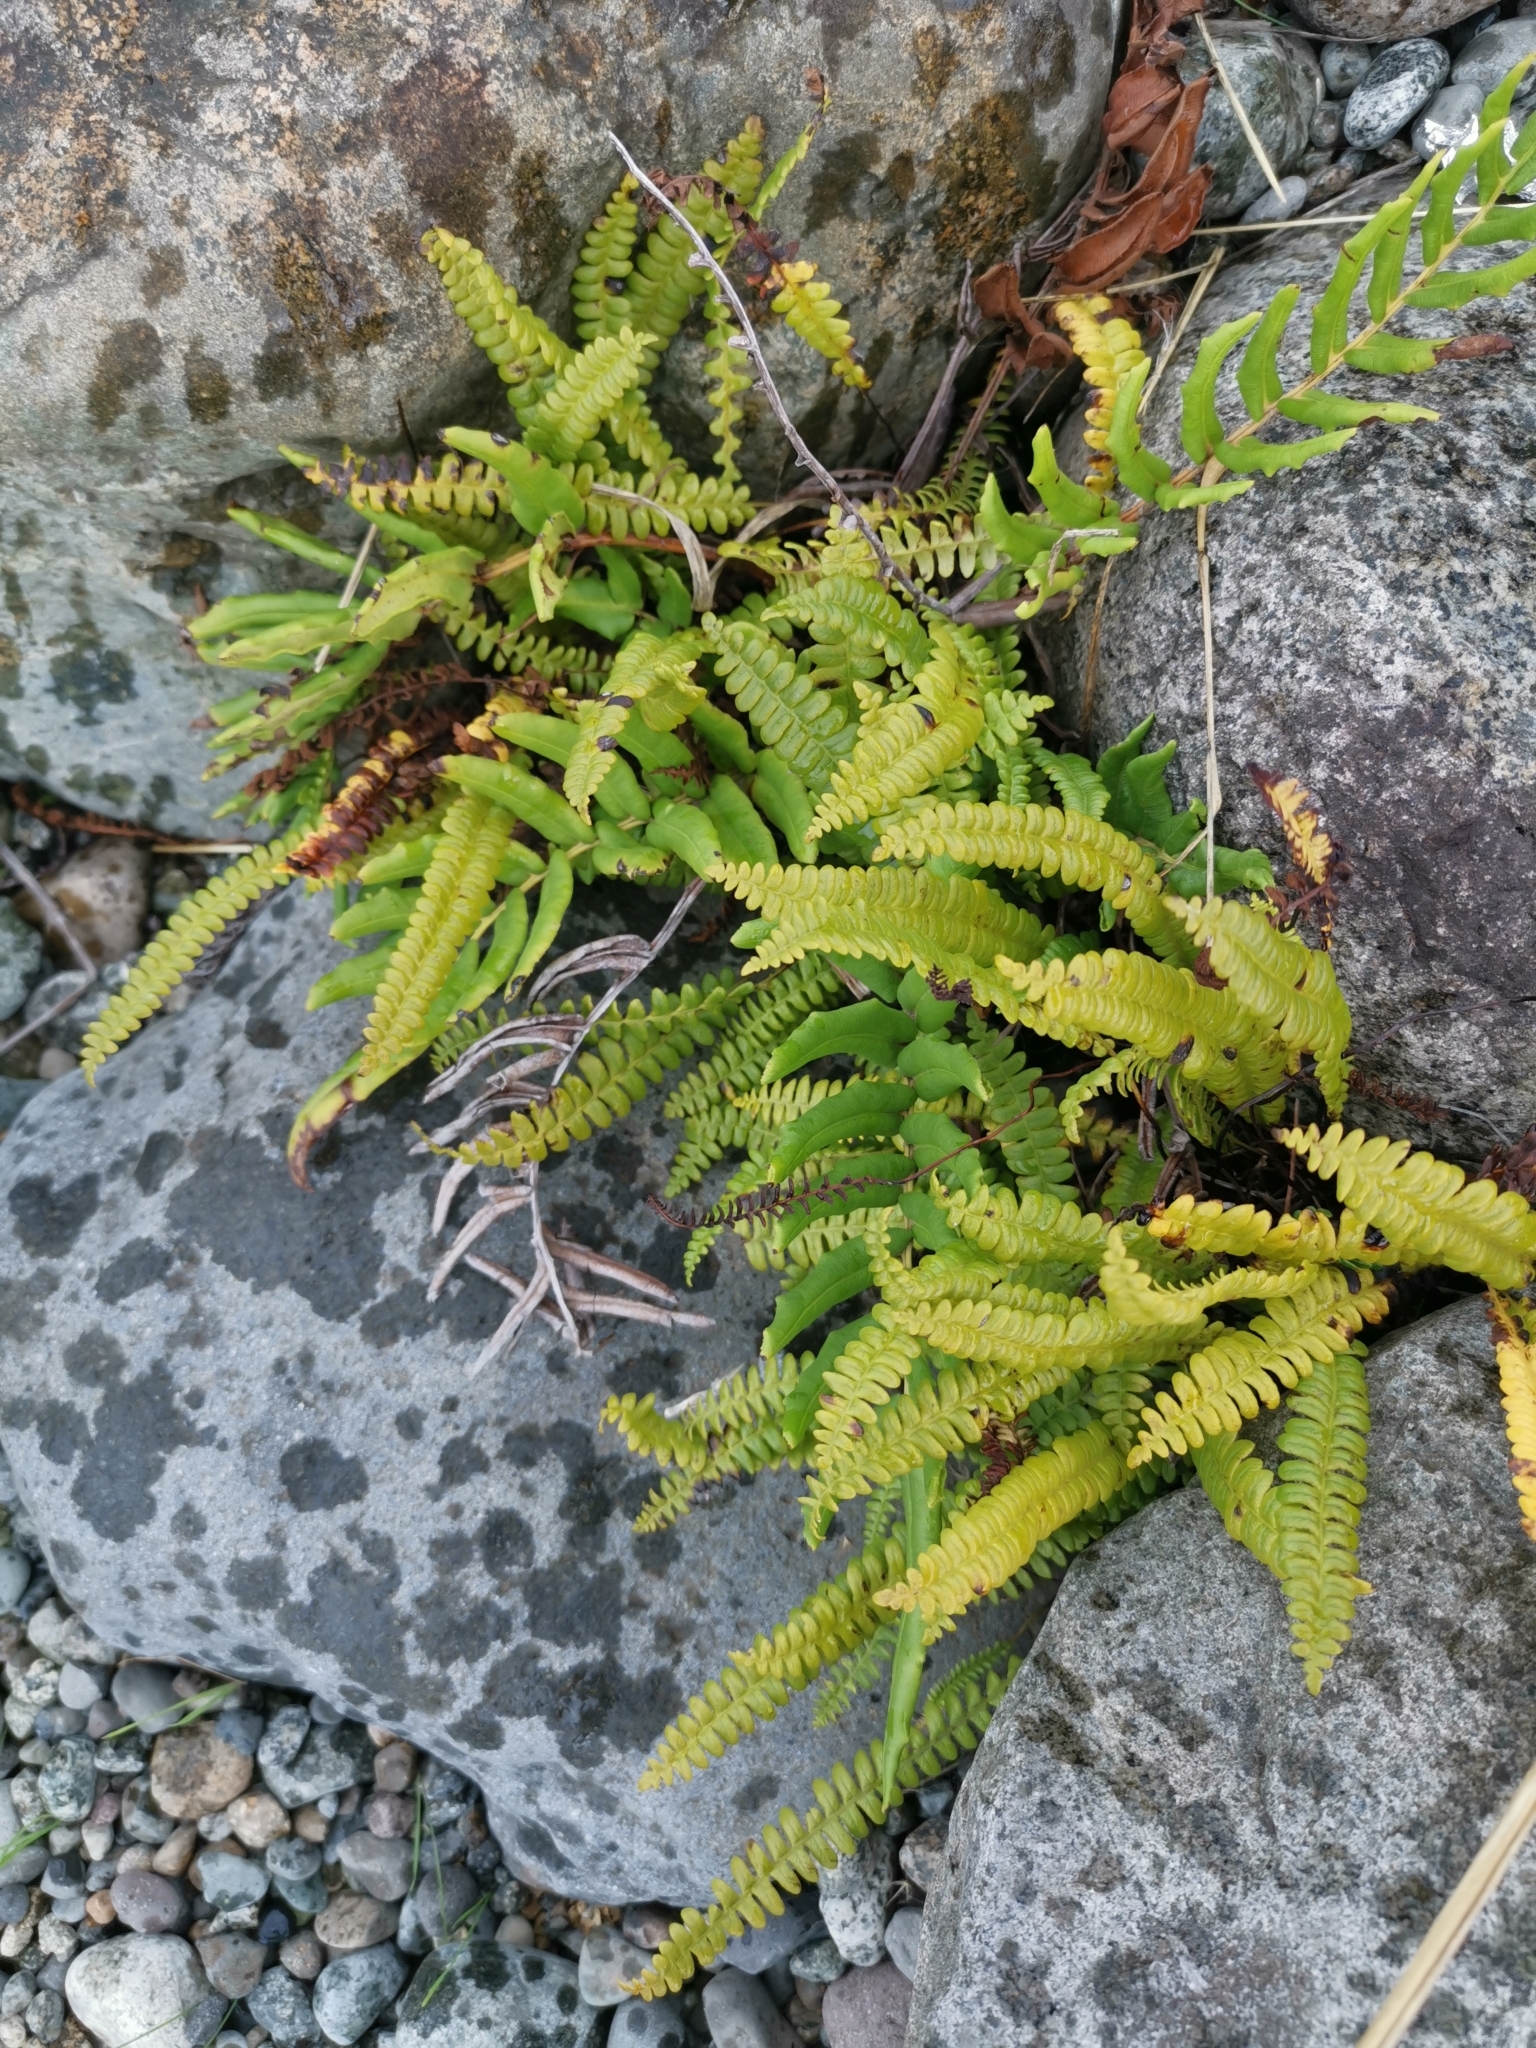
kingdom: Plantae
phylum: Tracheophyta
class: Polypodiopsida
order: Polypodiales
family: Blechnaceae
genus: Austroblechnum
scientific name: Austroblechnum penna-marina
